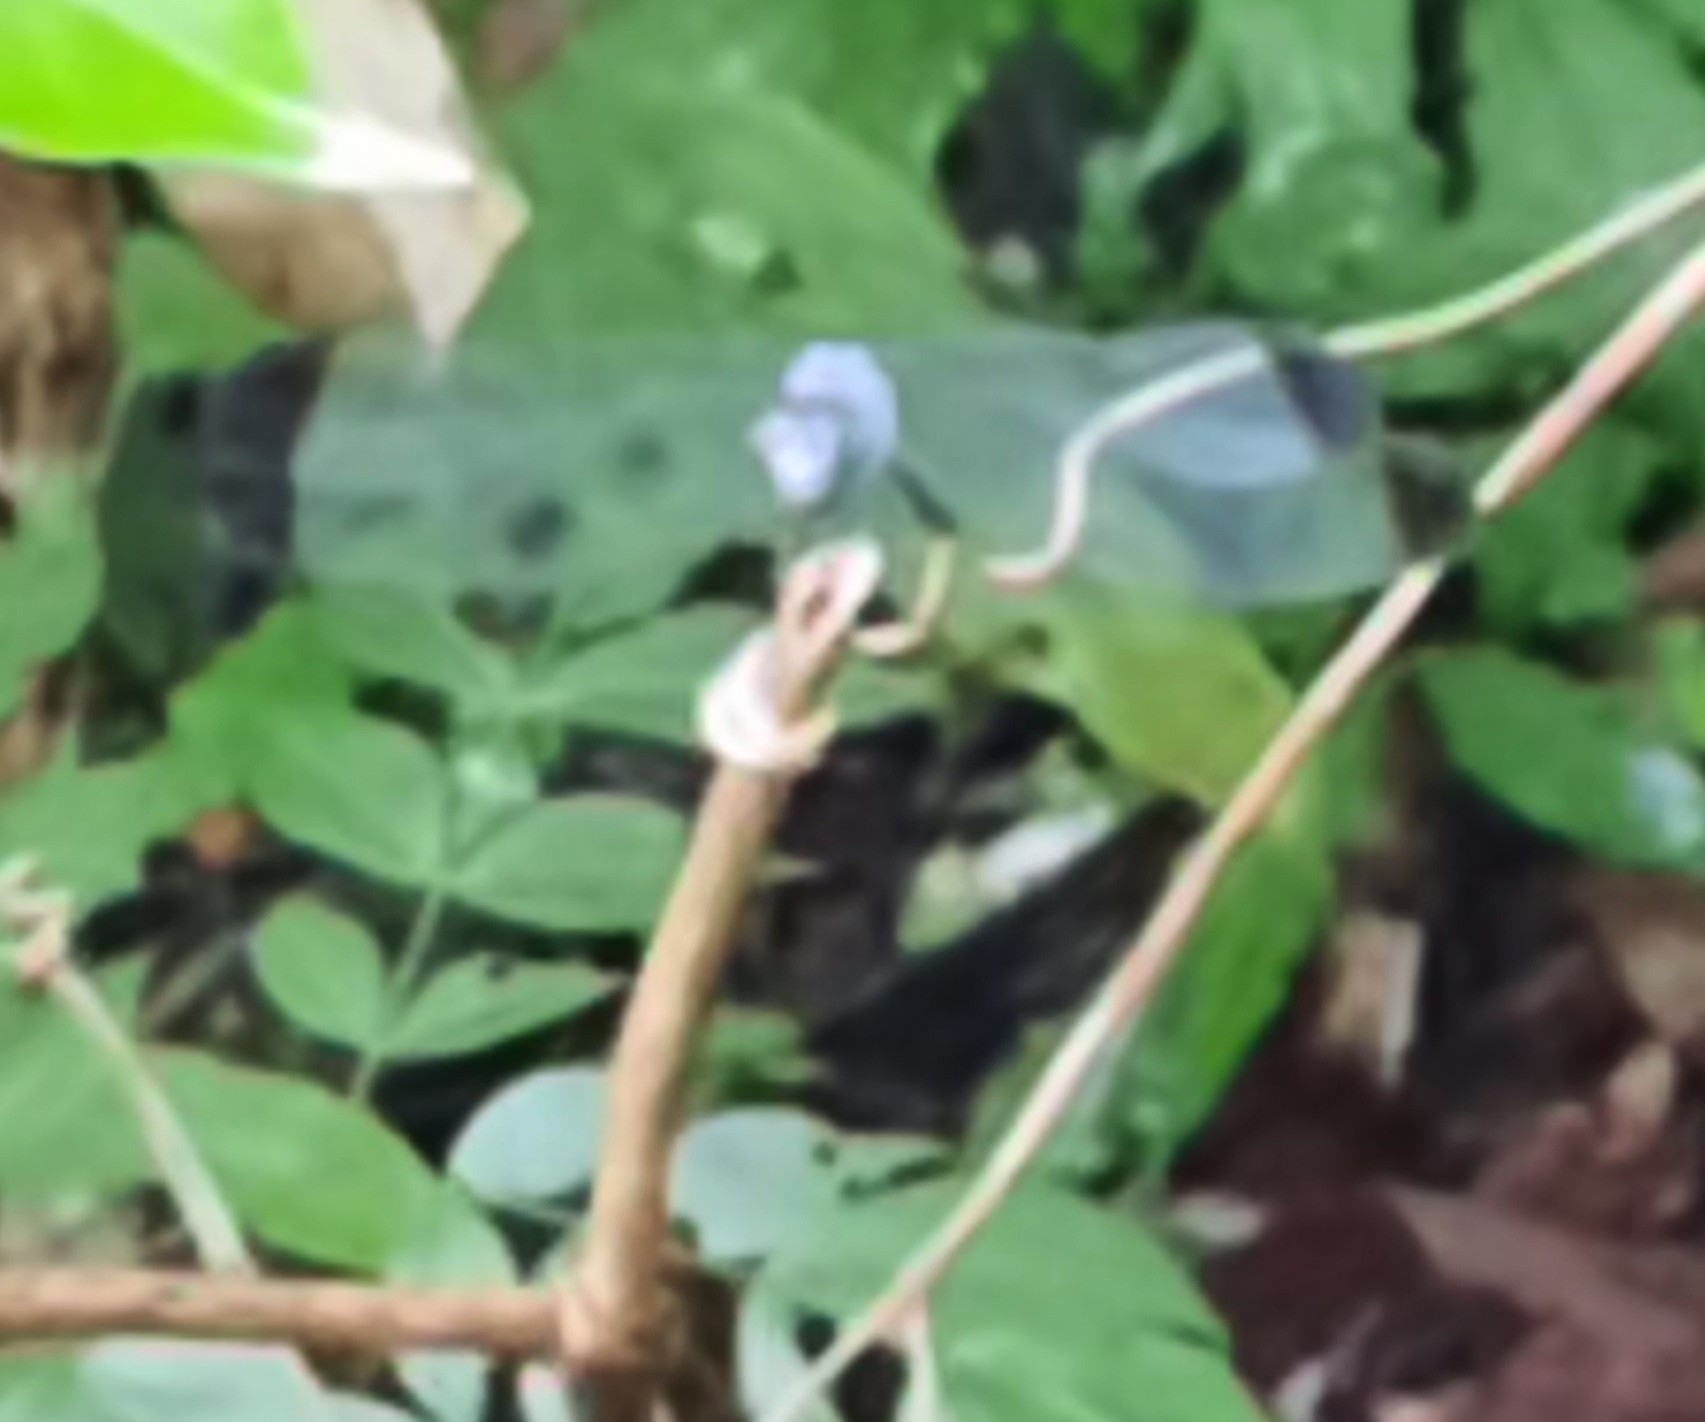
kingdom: Animalia
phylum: Arthropoda
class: Insecta
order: Odonata
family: Libellulidae
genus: Uracis
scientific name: Uracis imbuta
